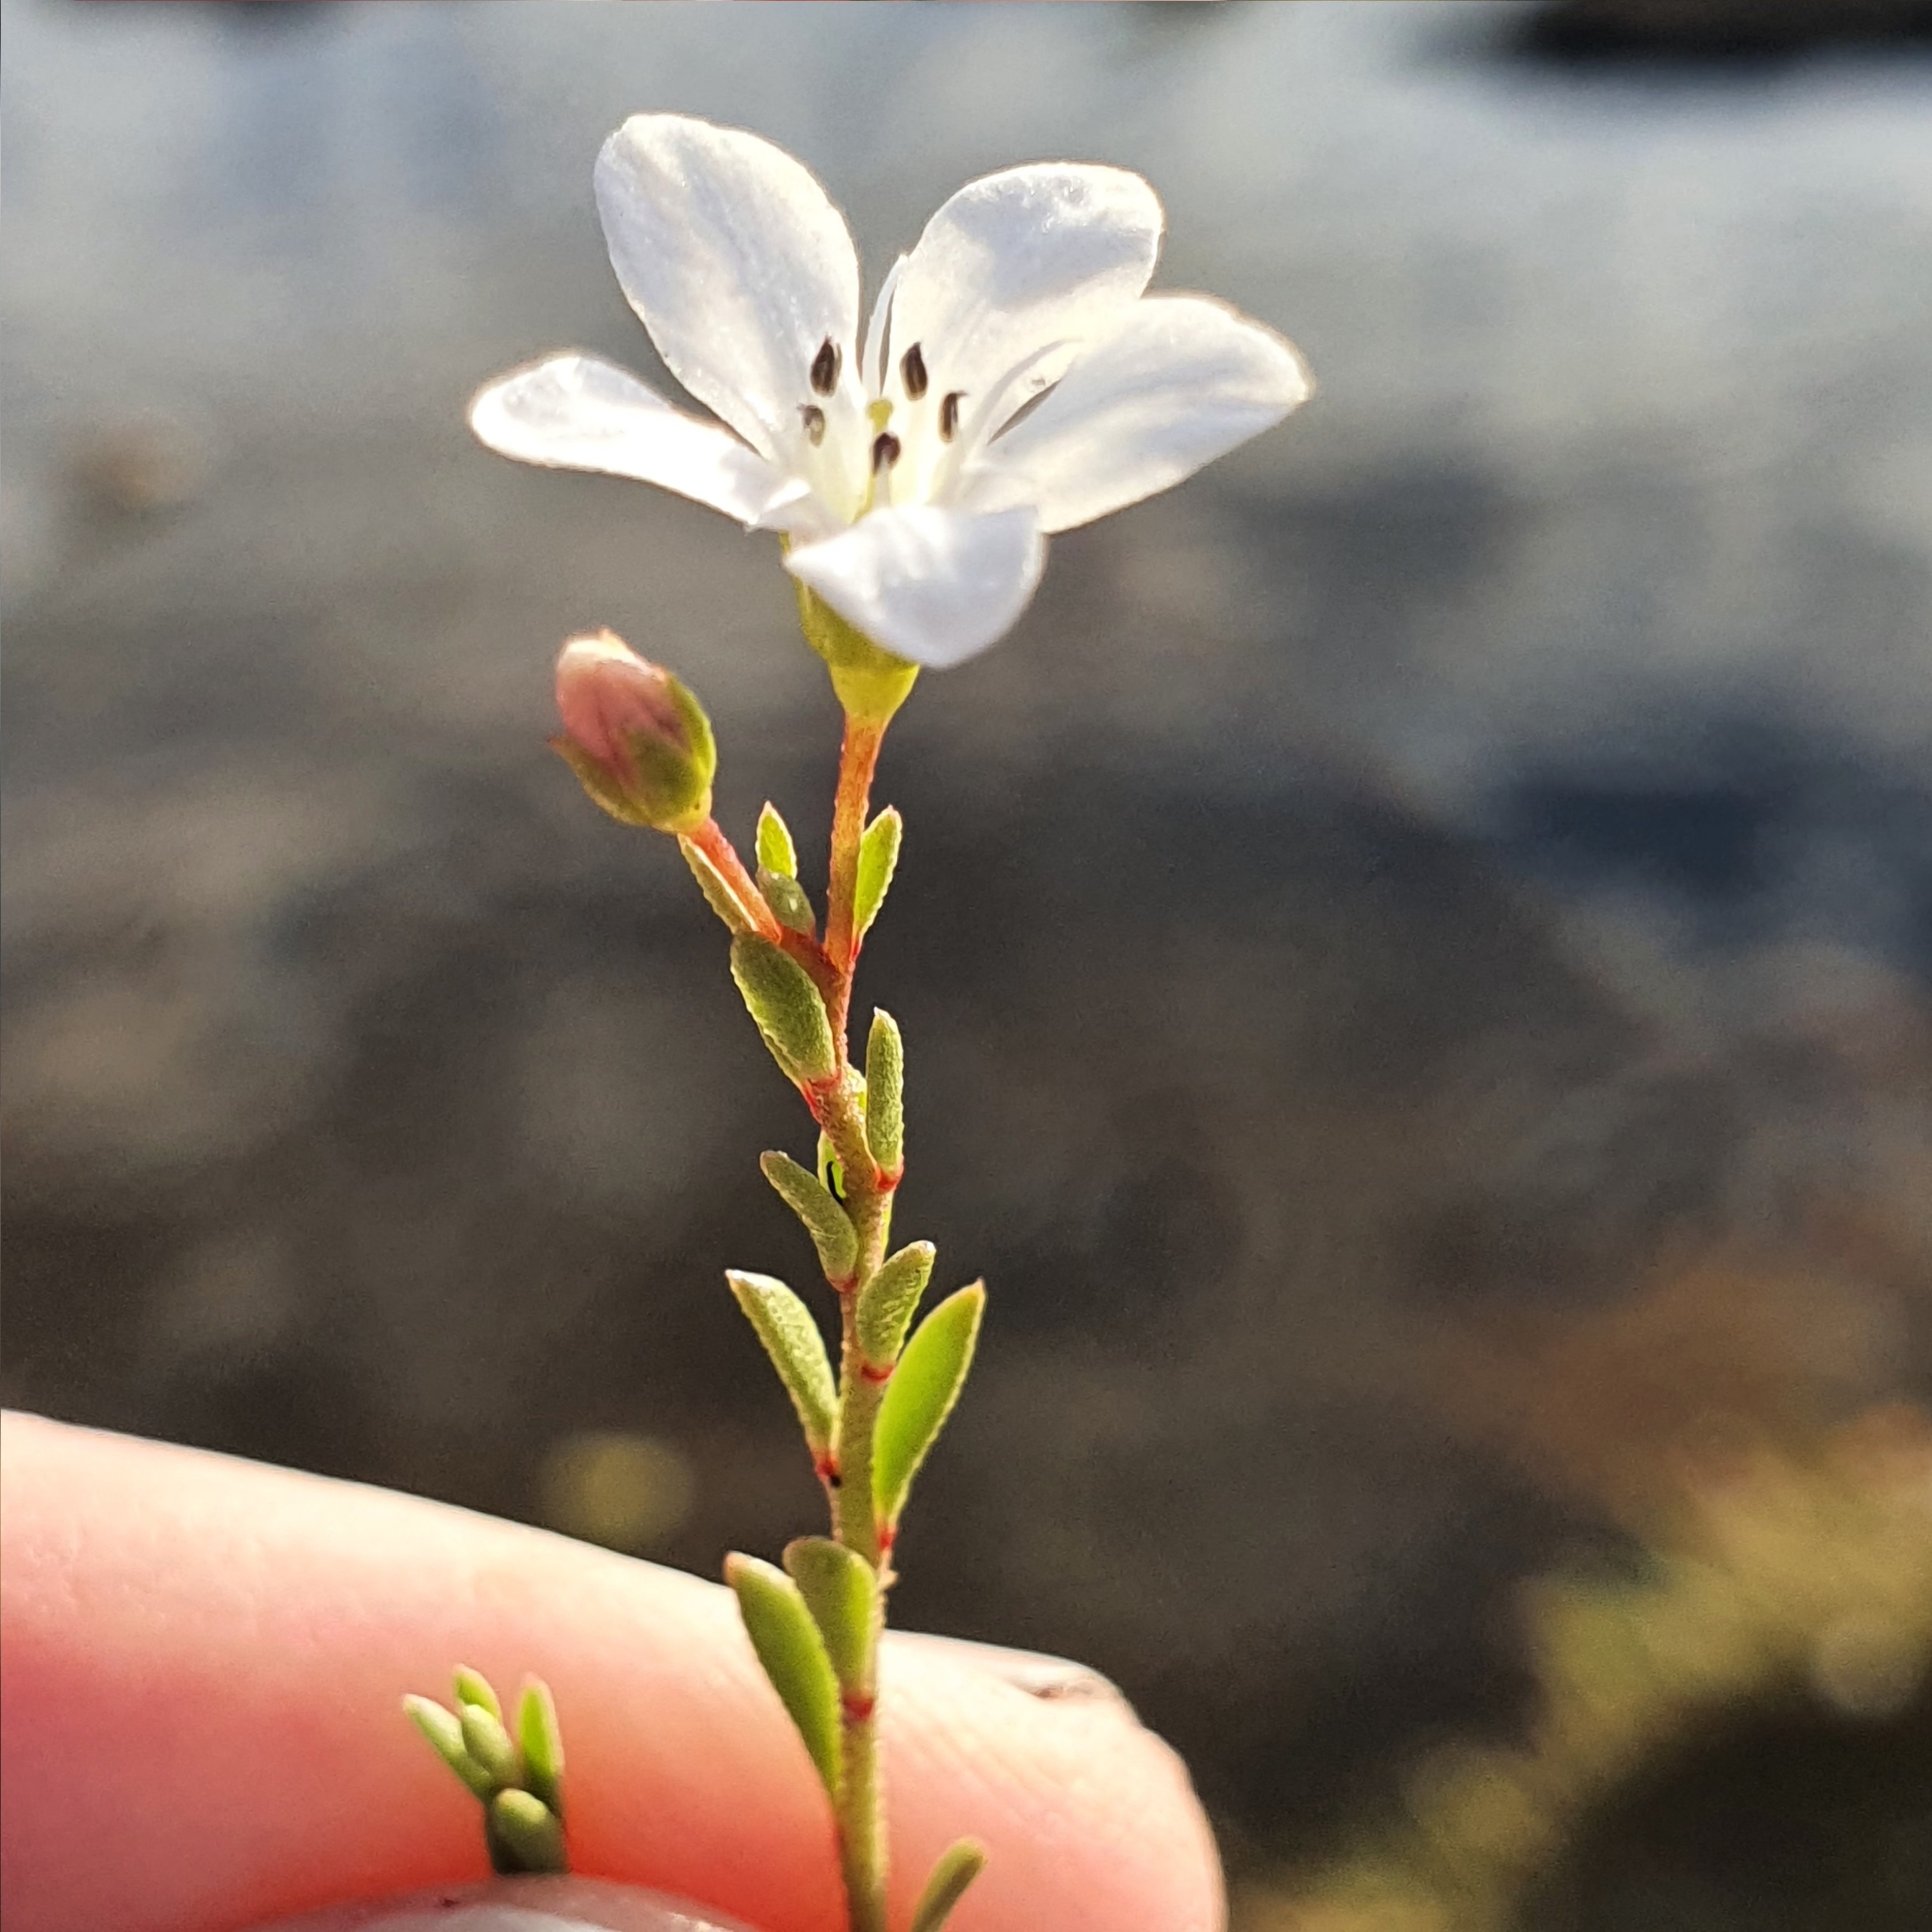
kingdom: Plantae
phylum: Tracheophyta
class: Magnoliopsida
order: Ericales
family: Primulaceae
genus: Samolus
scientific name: Samolus repens
